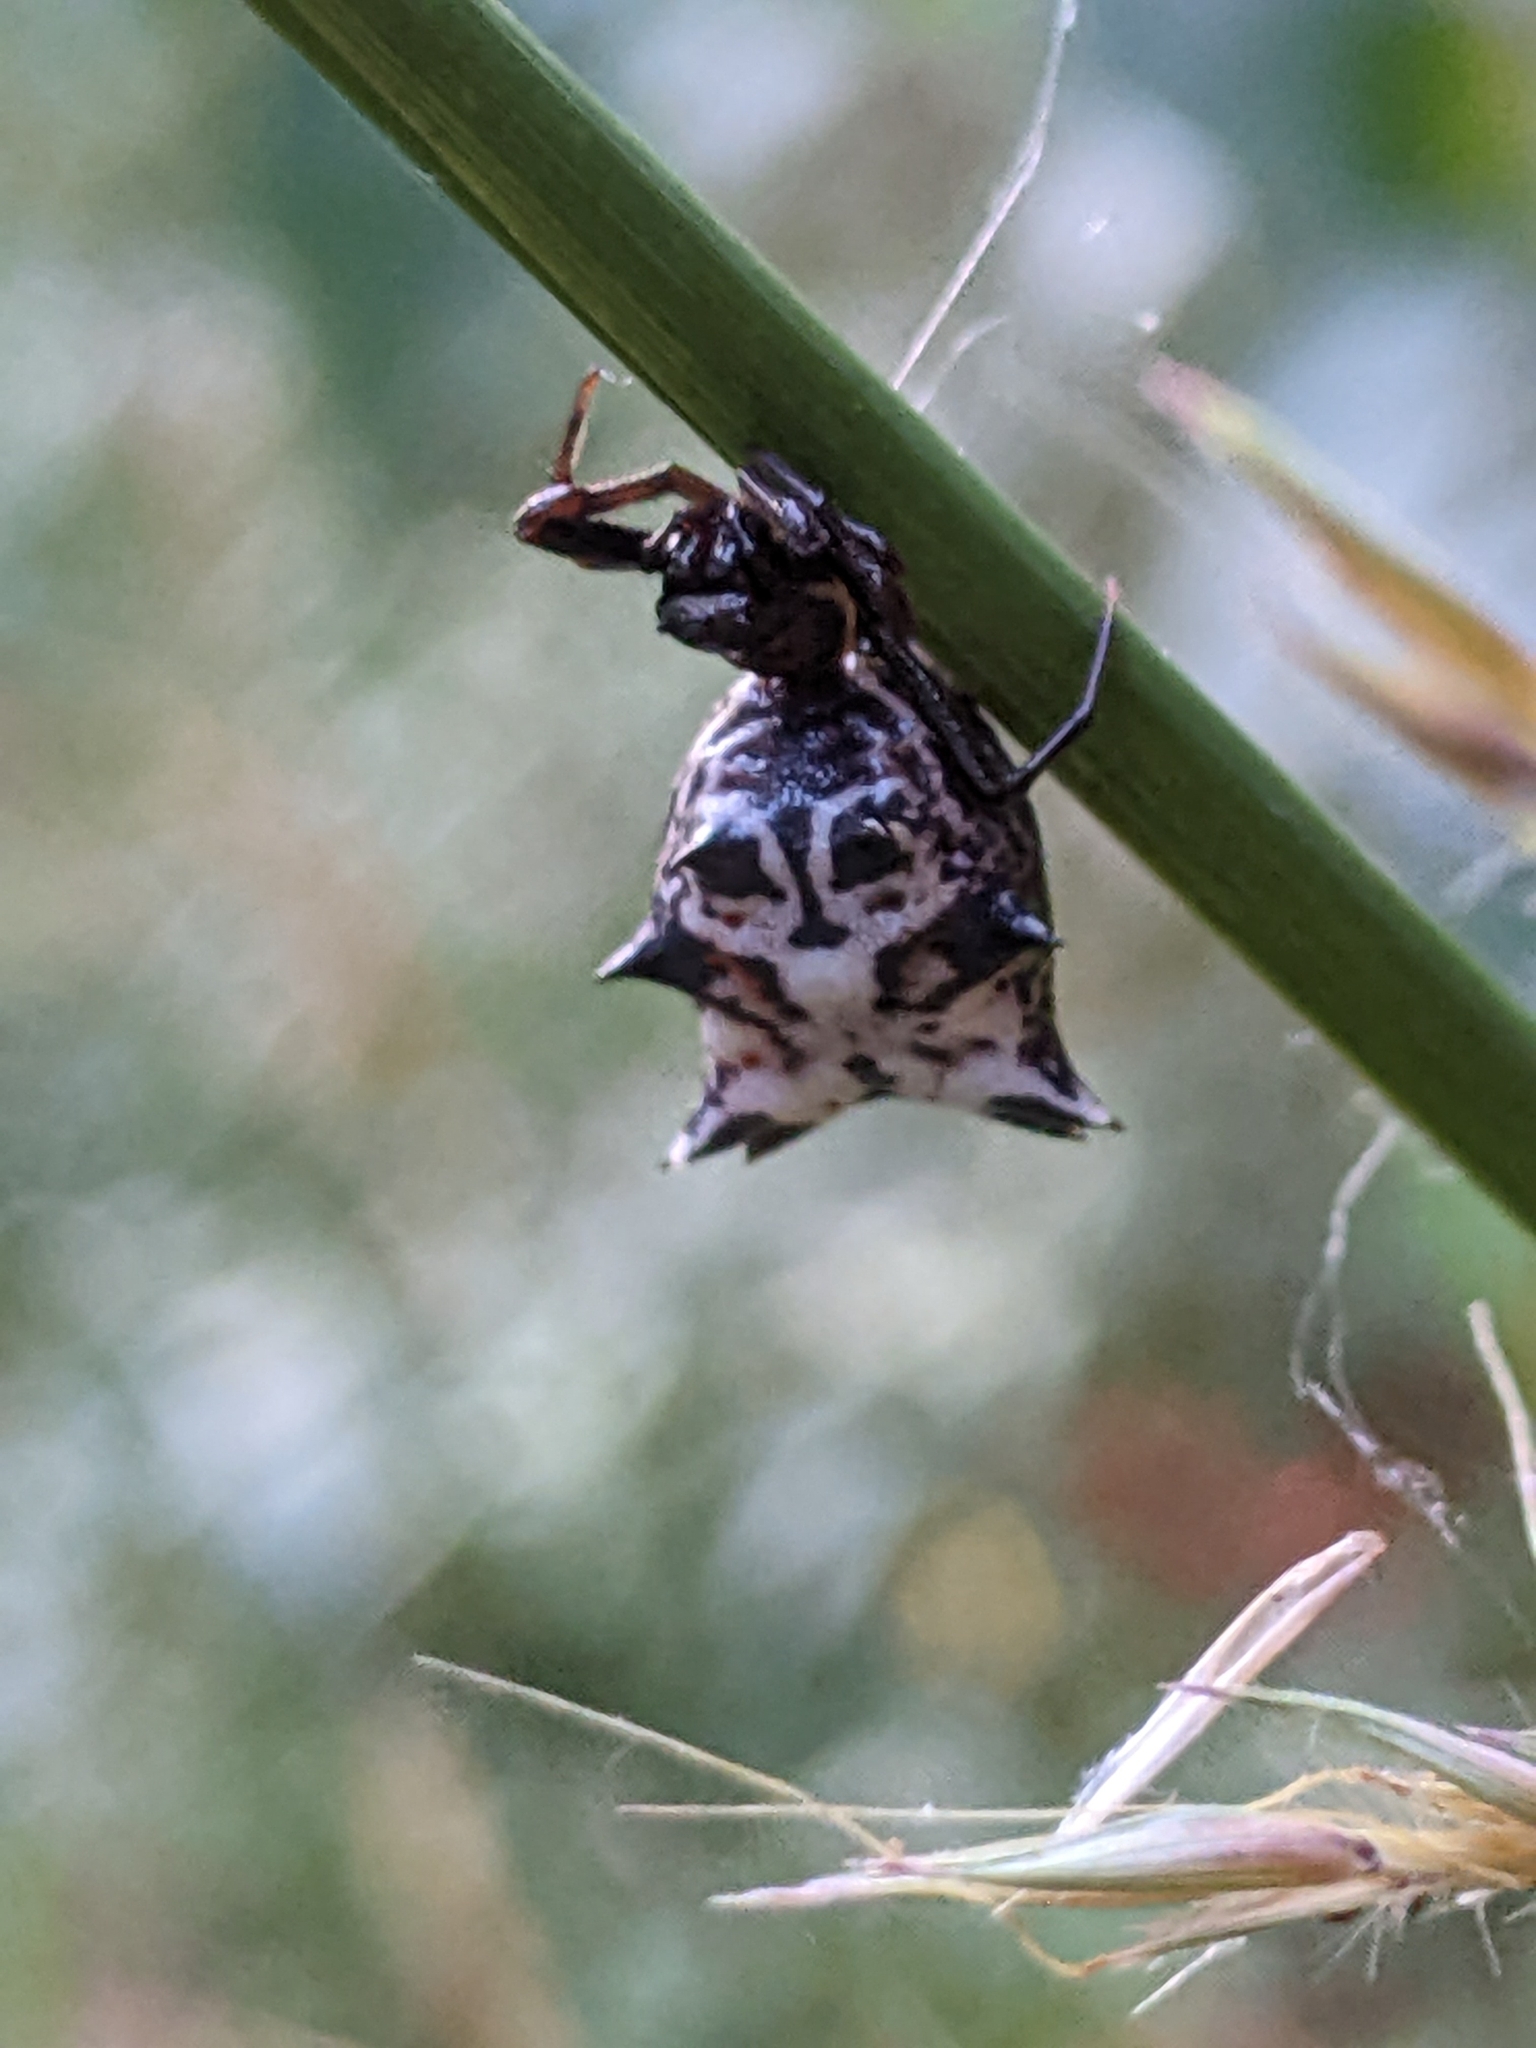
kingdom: Animalia
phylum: Arthropoda
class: Arachnida
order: Araneae
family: Araneidae
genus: Micrathena
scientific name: Micrathena gracilis
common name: Orb weavers
